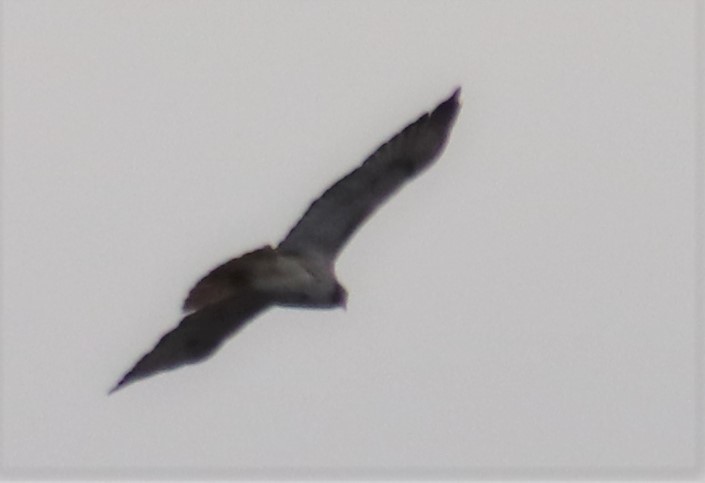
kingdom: Animalia
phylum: Chordata
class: Aves
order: Accipitriformes
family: Accipitridae
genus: Buteo
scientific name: Buteo jamaicensis
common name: Red-tailed hawk
